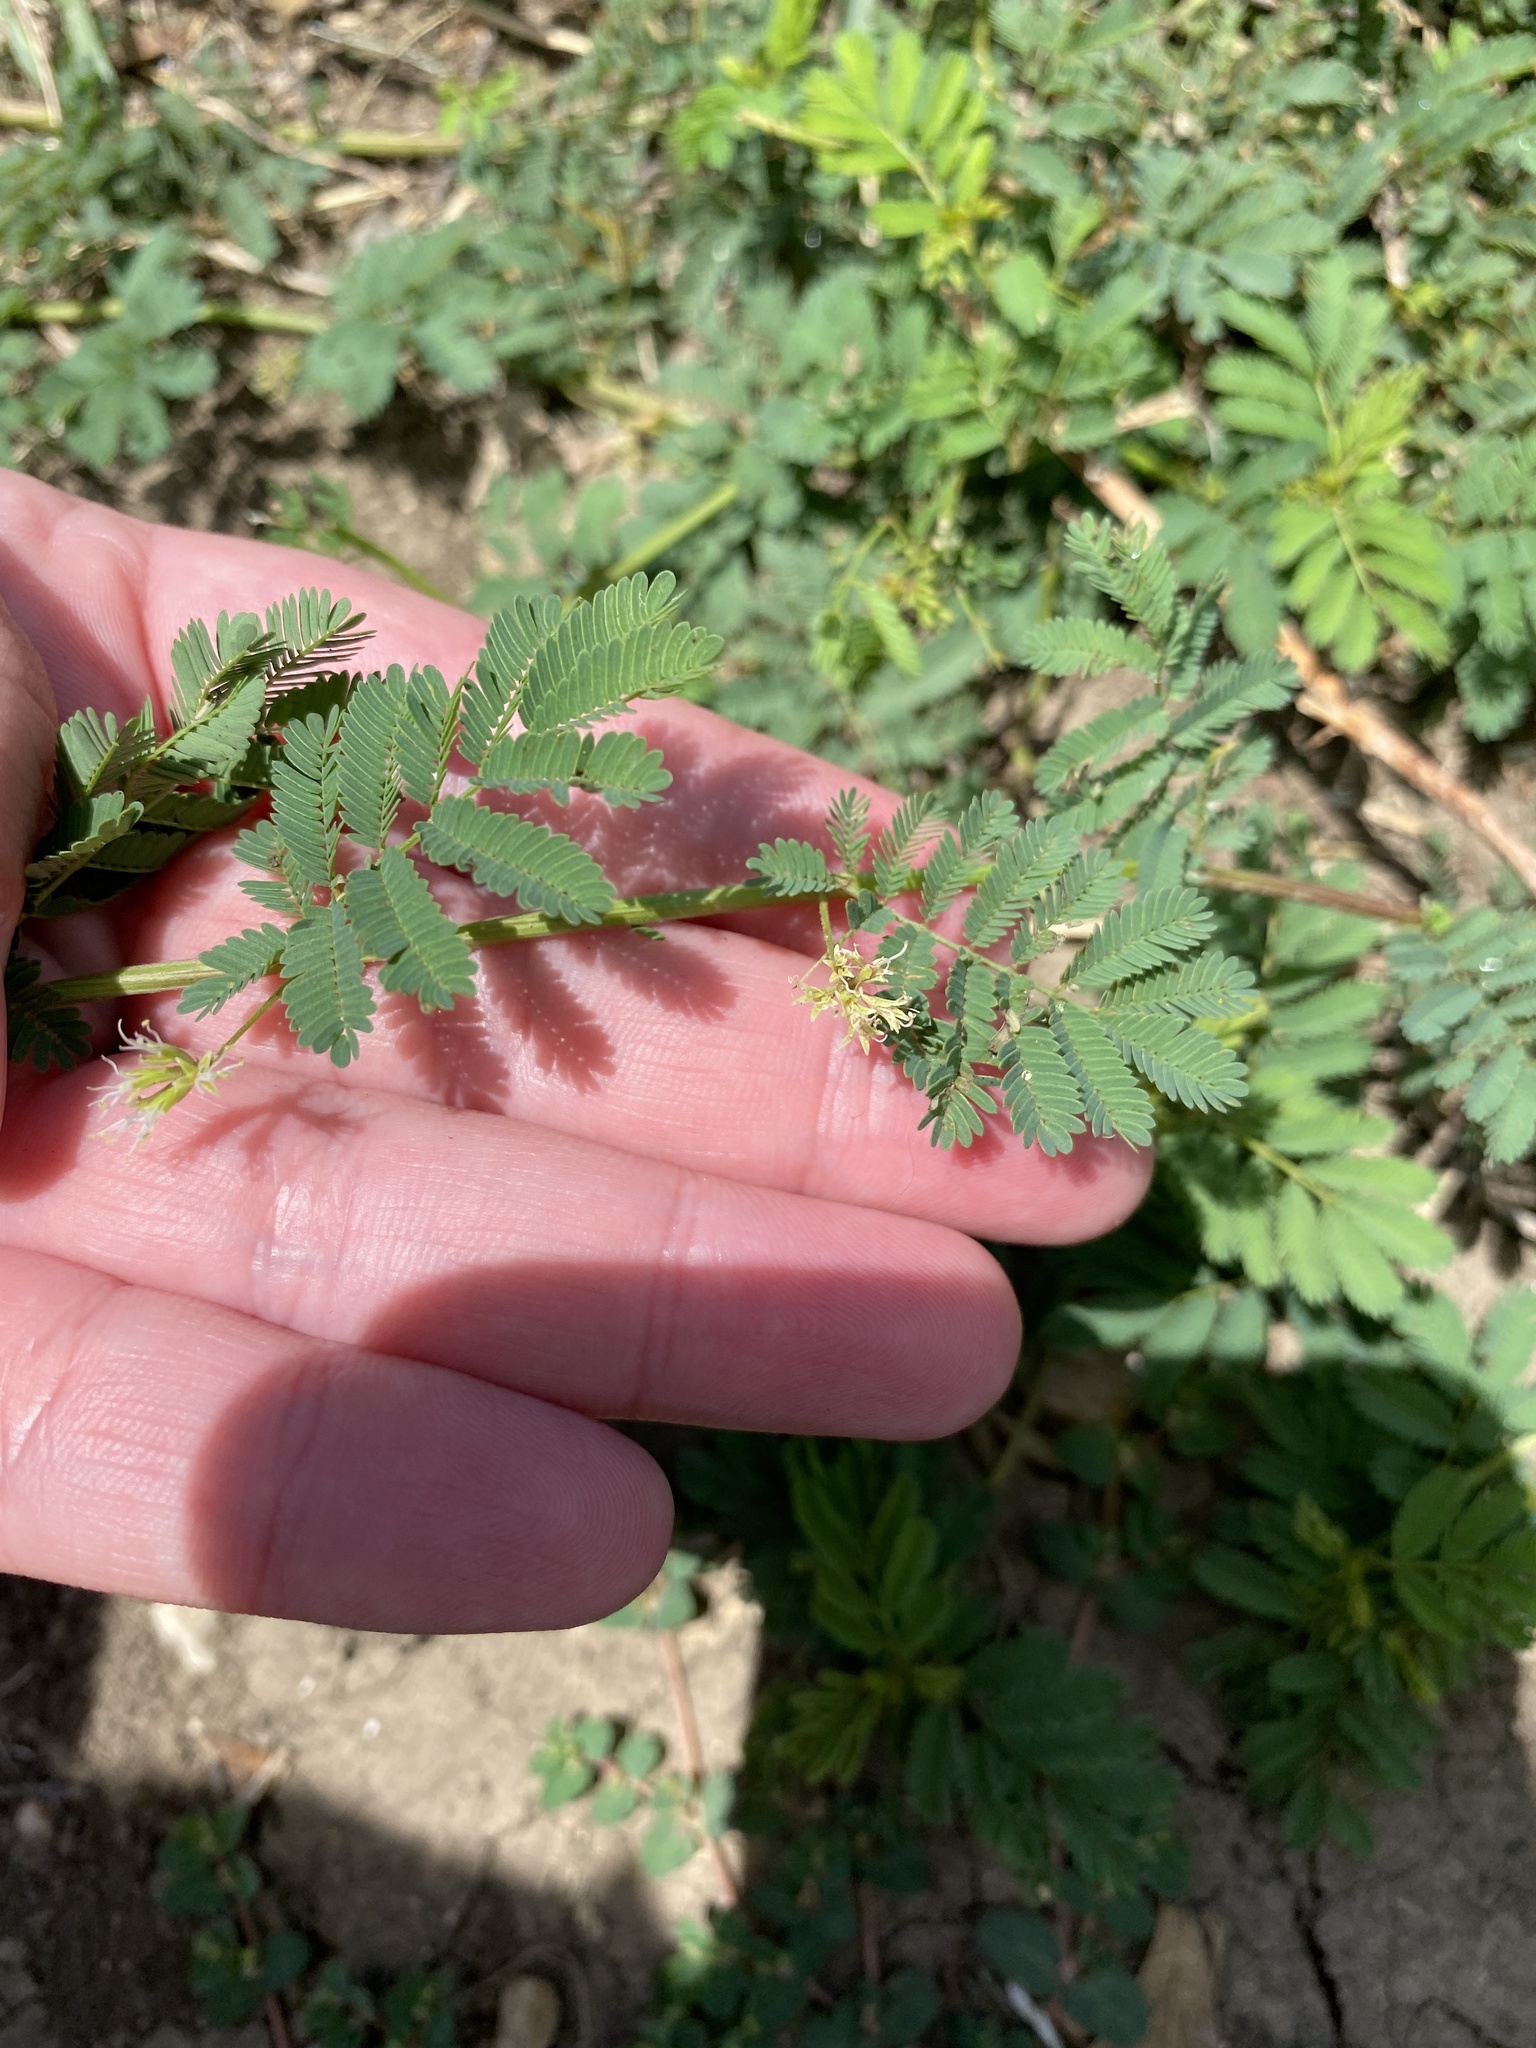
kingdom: Plantae
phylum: Tracheophyta
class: Magnoliopsida
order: Fabales
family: Fabaceae
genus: Desmanthus
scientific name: Desmanthus leptolobus
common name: Prairie-mimosa
